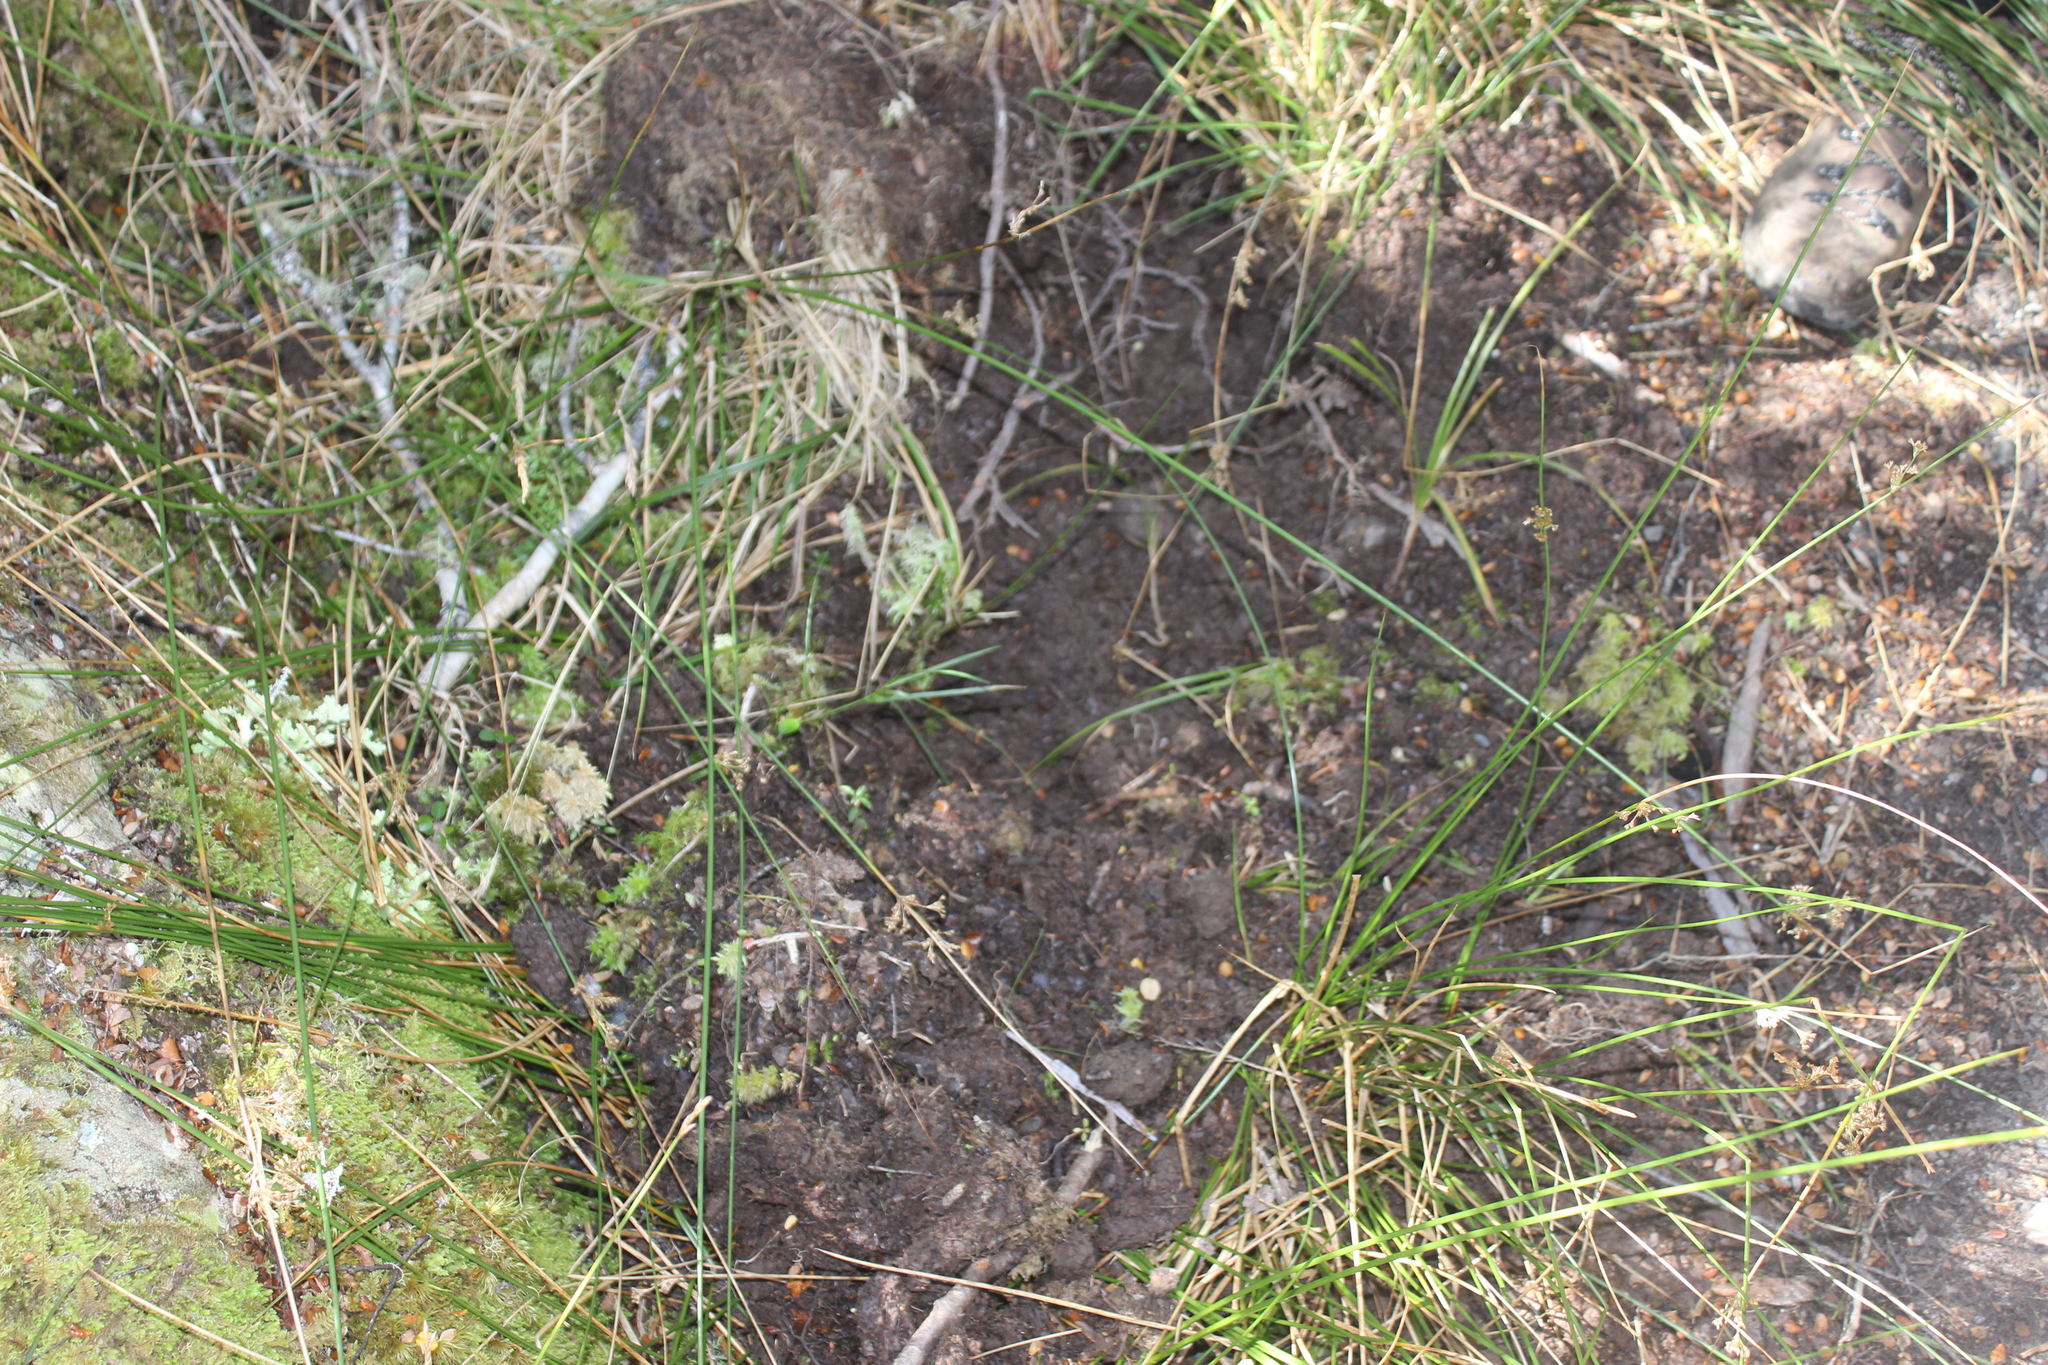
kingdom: Animalia
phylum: Chordata
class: Mammalia
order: Artiodactyla
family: Suidae
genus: Sus
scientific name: Sus scrofa
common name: Wild boar
